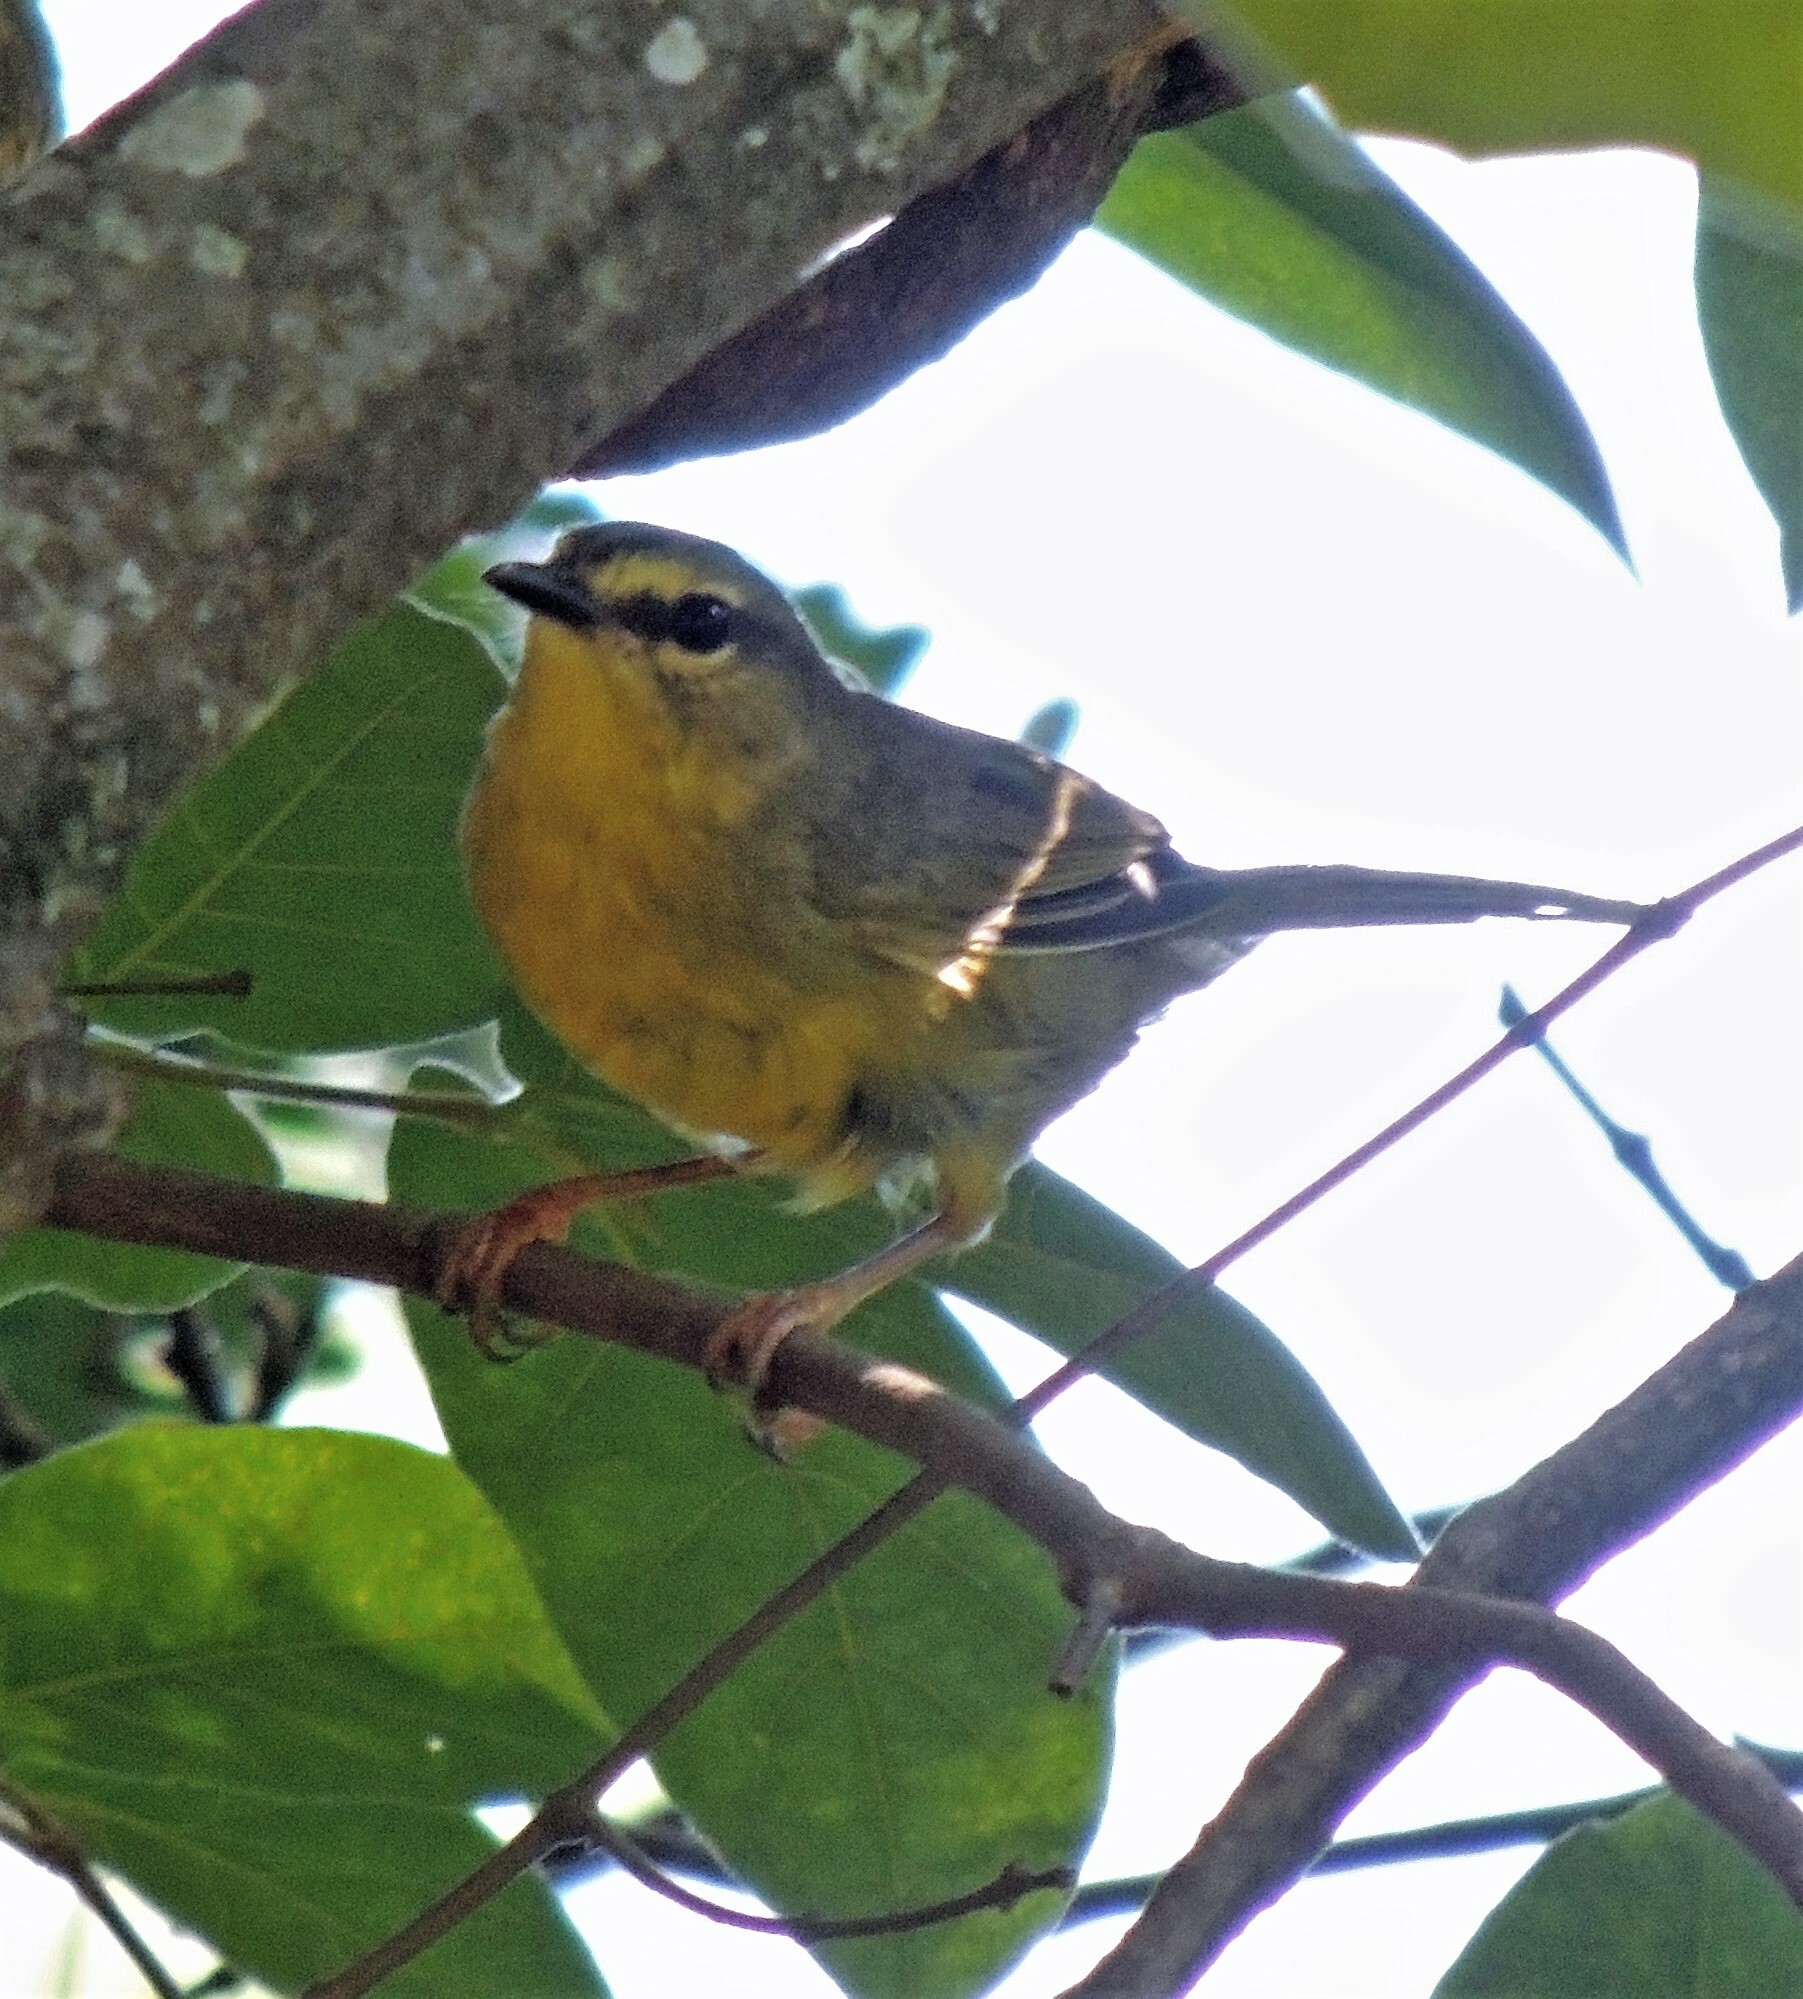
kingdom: Animalia
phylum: Chordata
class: Aves
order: Passeriformes
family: Parulidae
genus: Myiothlypis
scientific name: Myiothlypis bivittata
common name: Two-banded warbler
